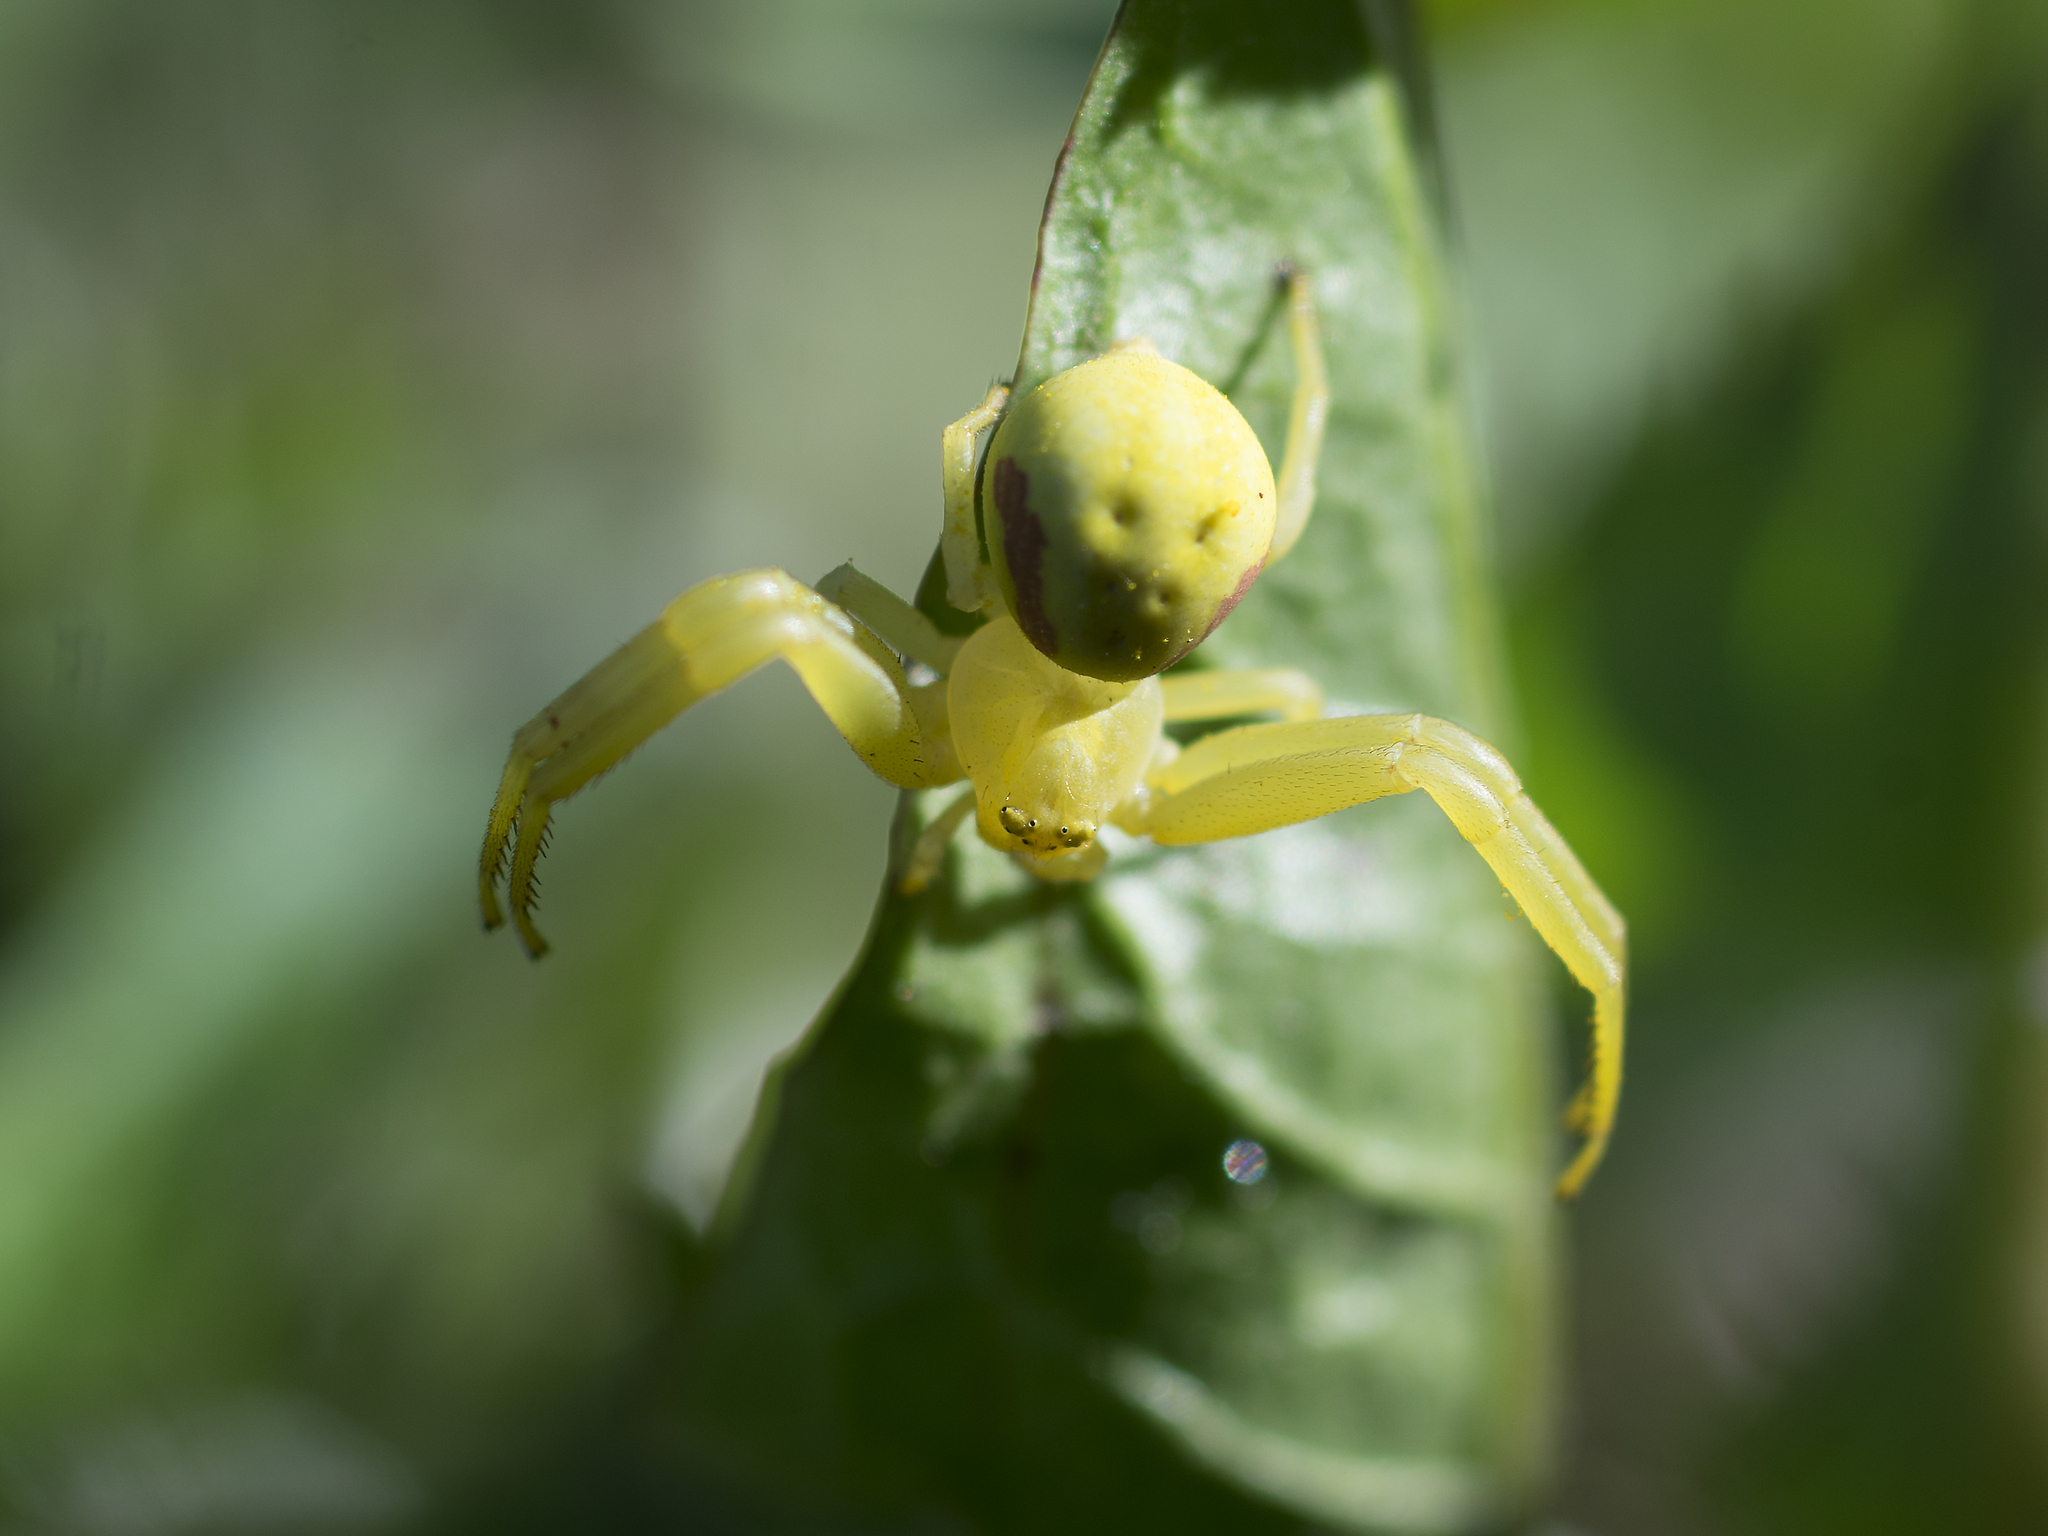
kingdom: Animalia
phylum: Arthropoda
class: Arachnida
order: Araneae
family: Thomisidae
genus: Misumena
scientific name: Misumena vatia
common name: Goldenrod crab spider
